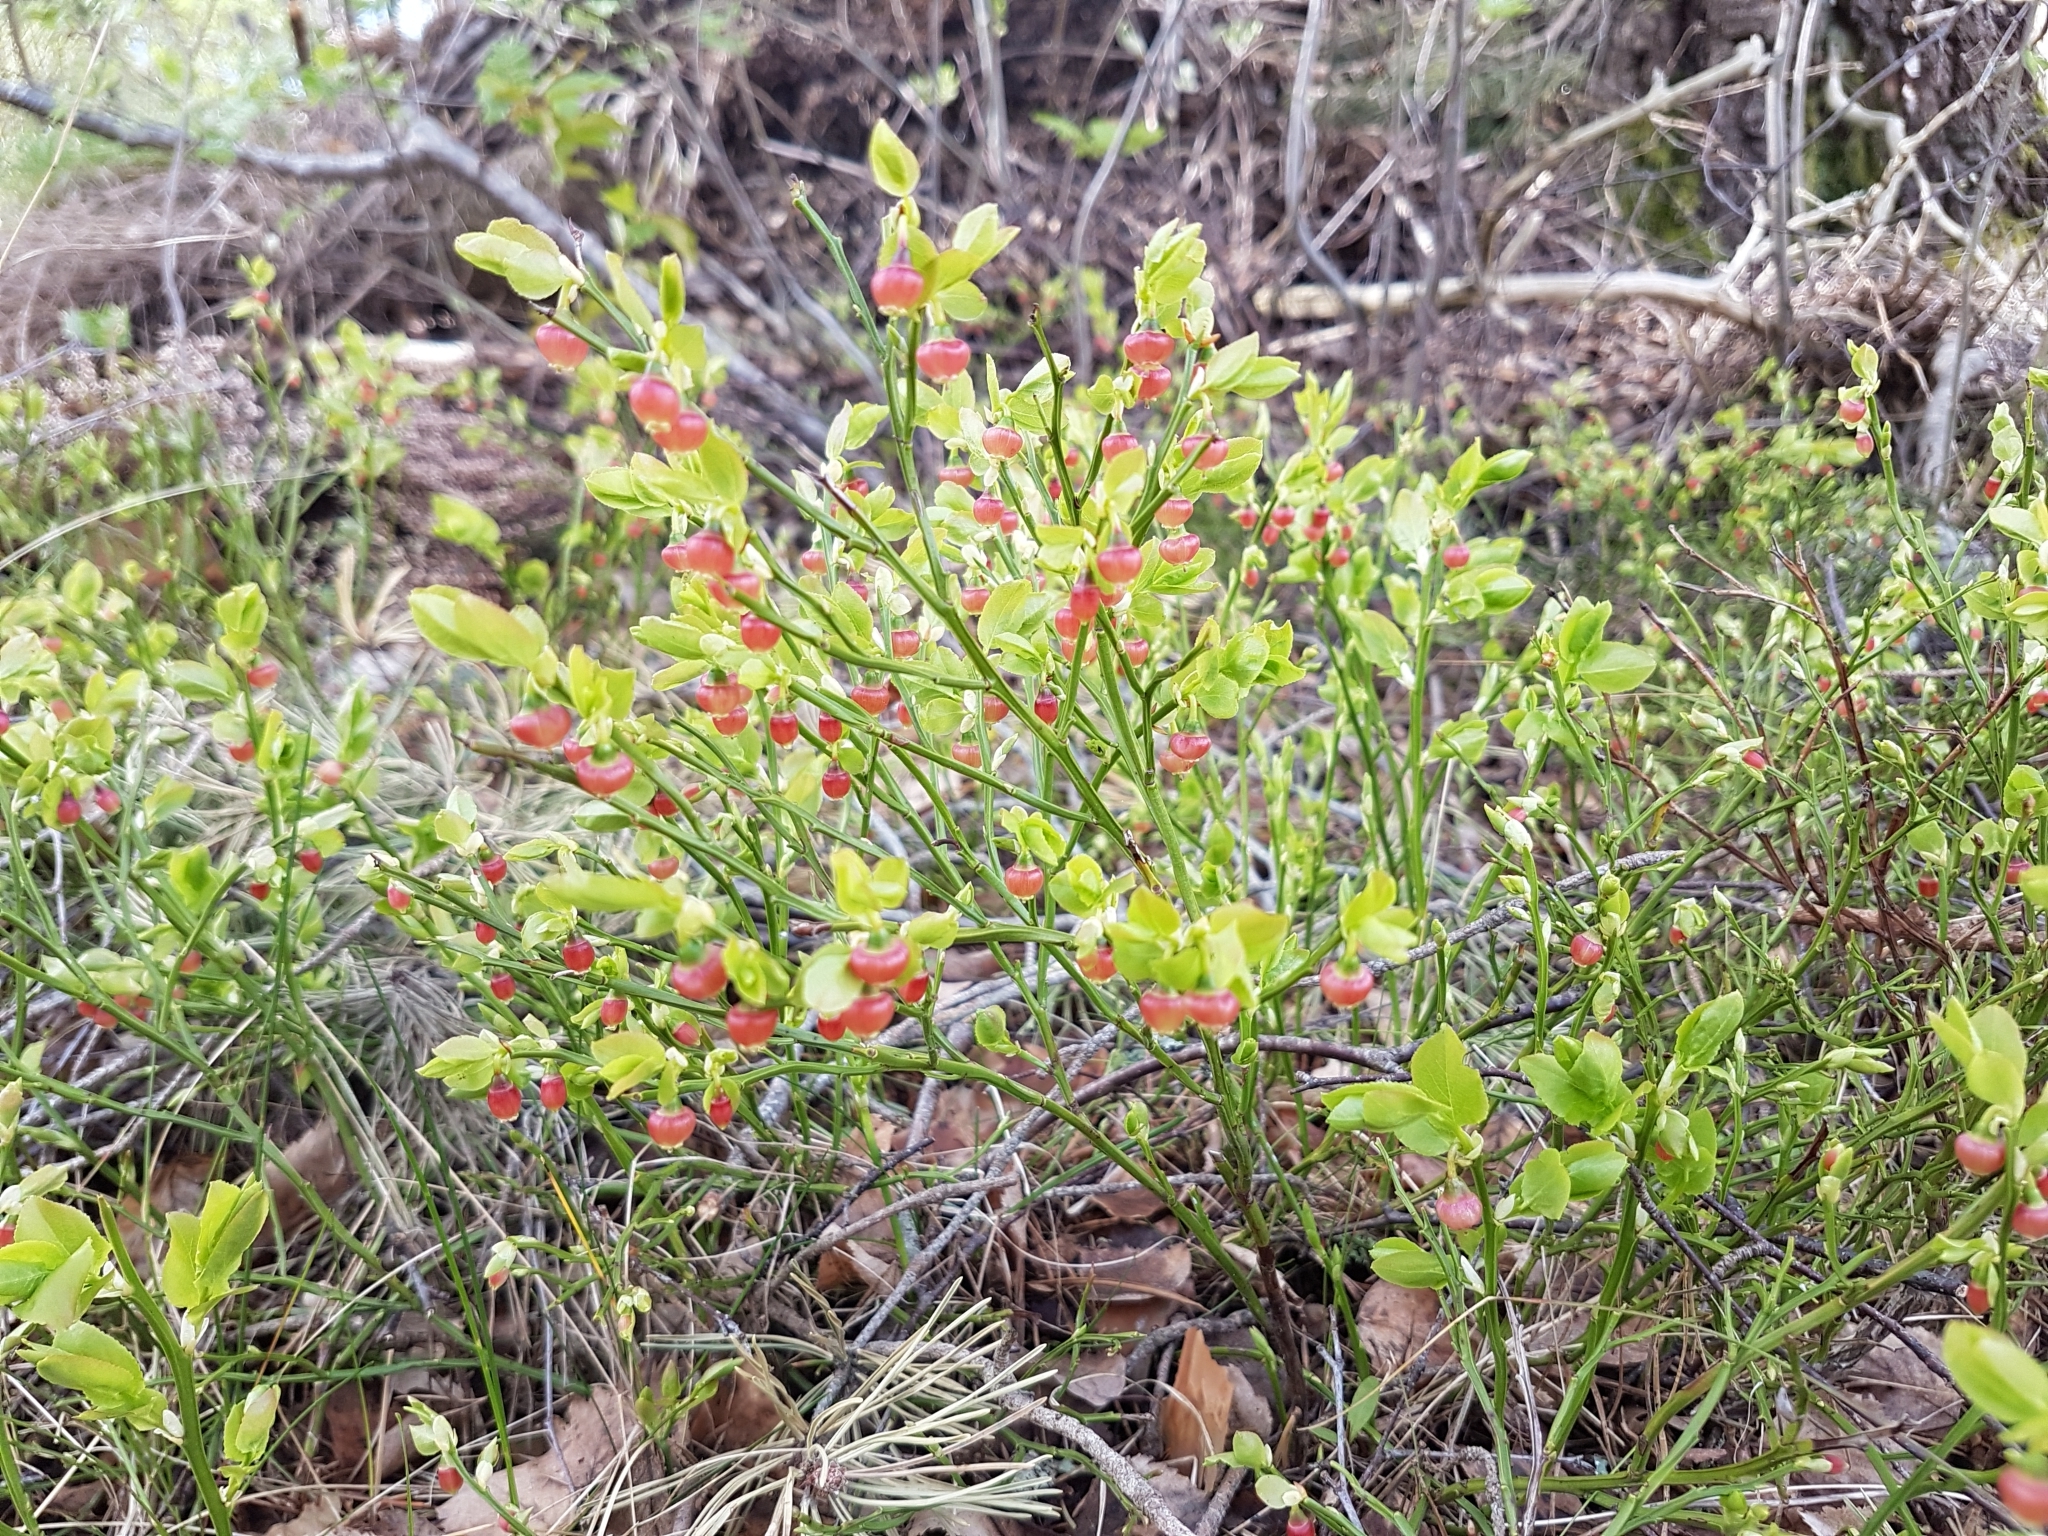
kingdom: Plantae
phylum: Tracheophyta
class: Magnoliopsida
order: Ericales
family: Ericaceae
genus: Vaccinium
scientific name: Vaccinium myrtillus
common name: Bilberry
